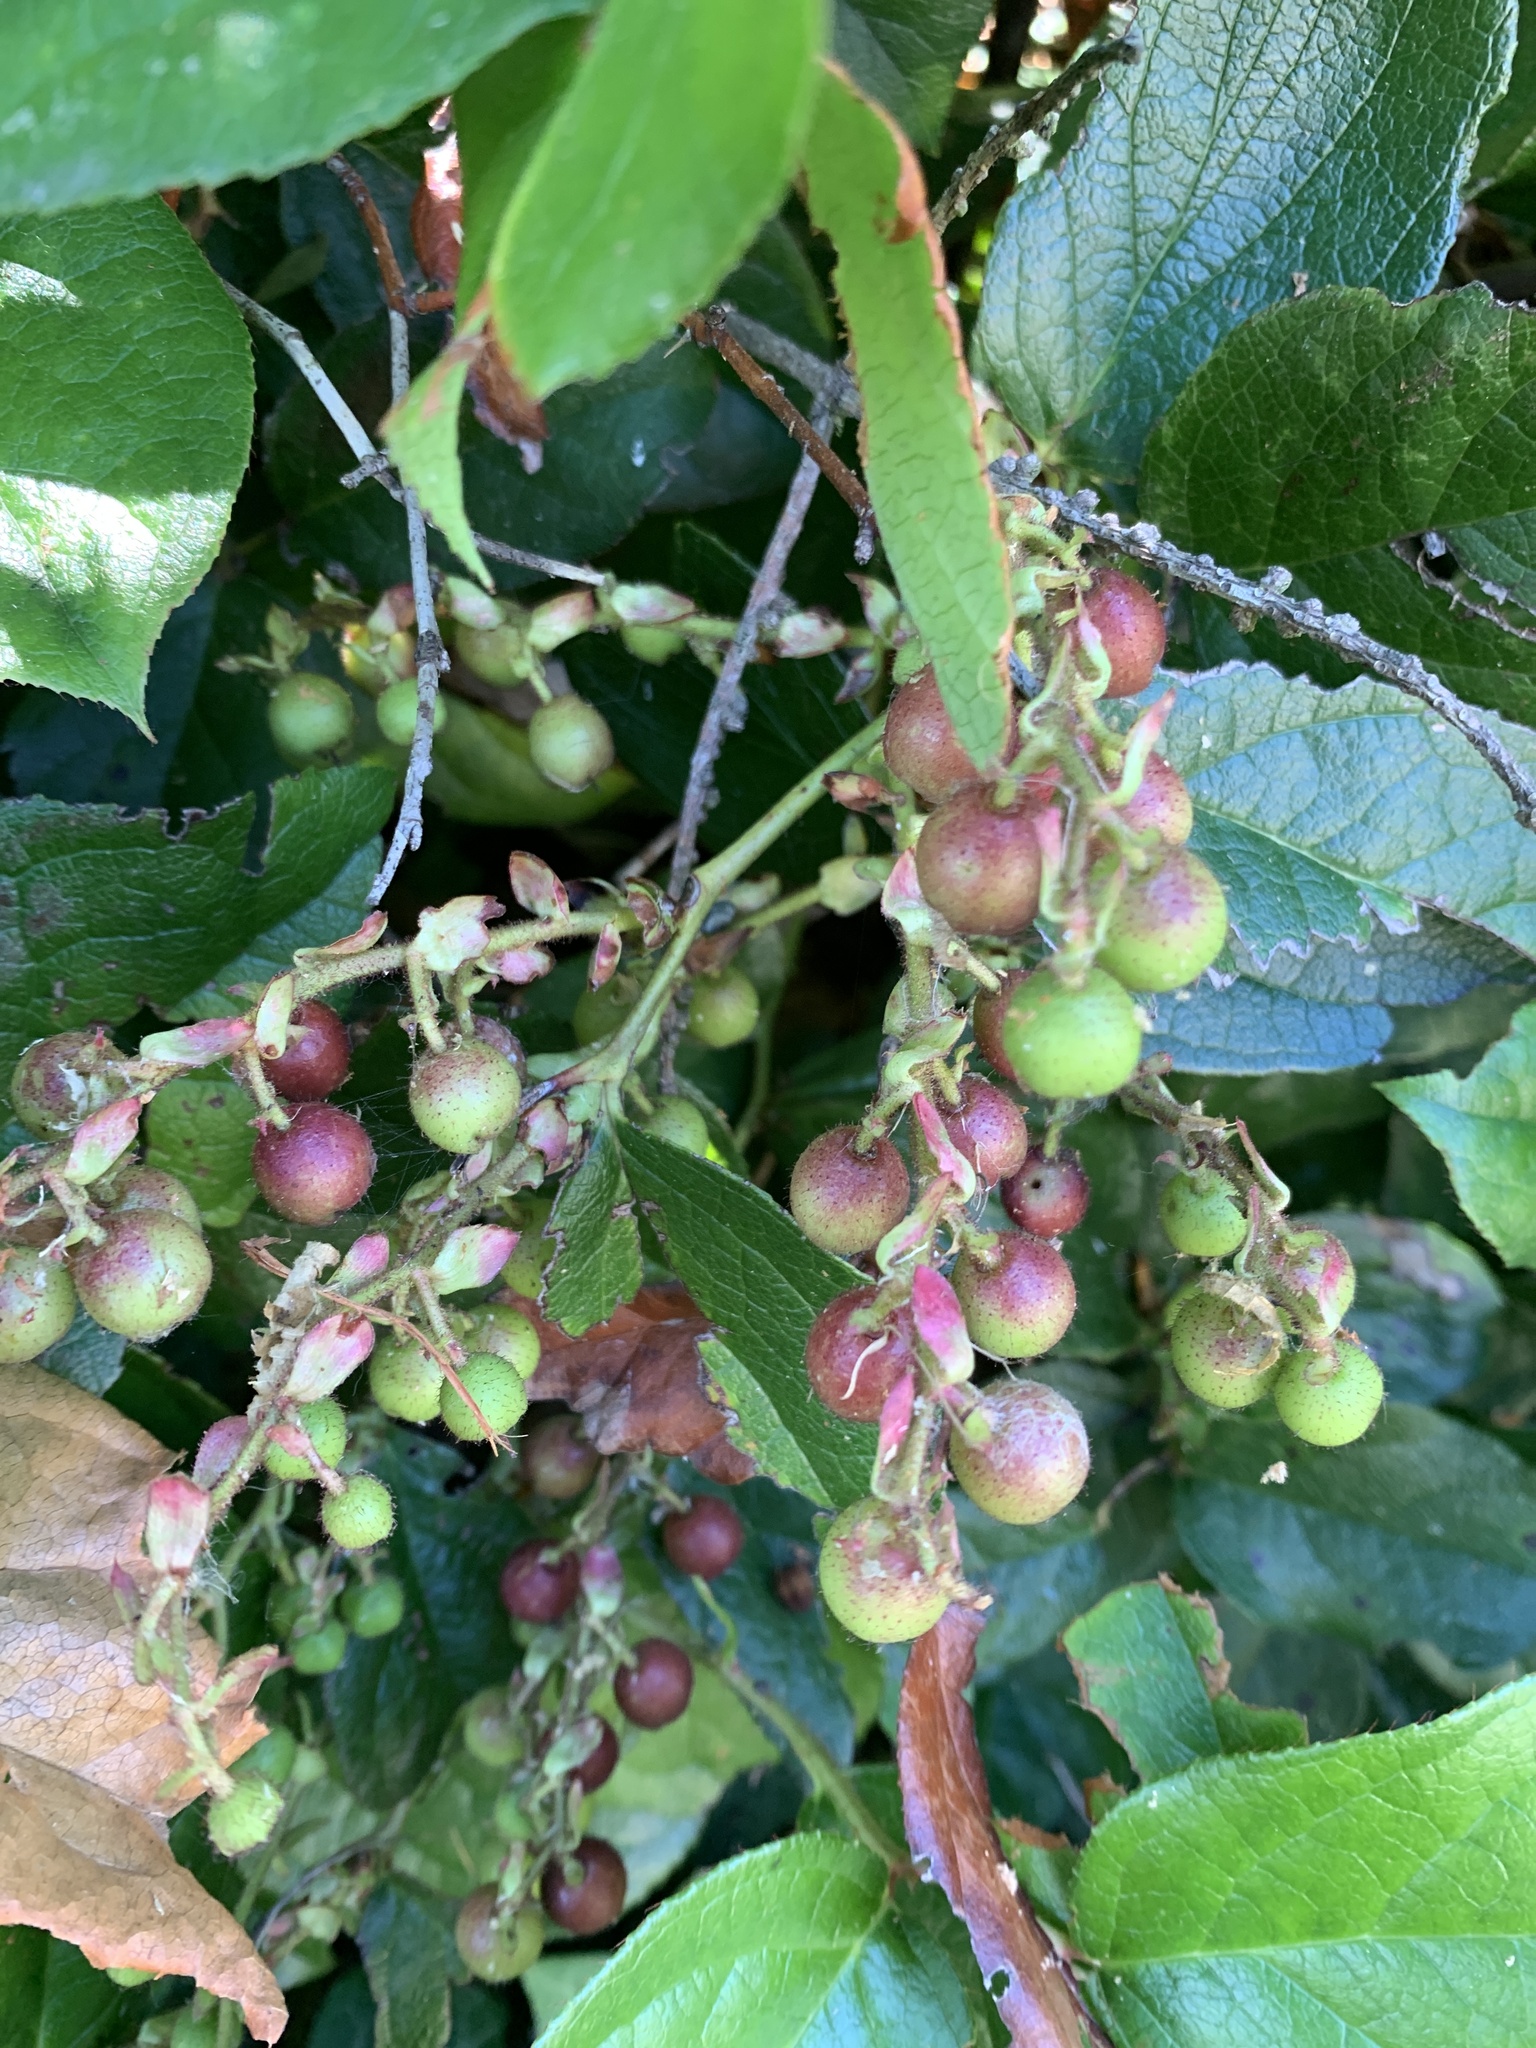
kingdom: Plantae
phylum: Tracheophyta
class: Magnoliopsida
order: Ericales
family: Ericaceae
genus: Gaultheria
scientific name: Gaultheria shallon
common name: Shallon
